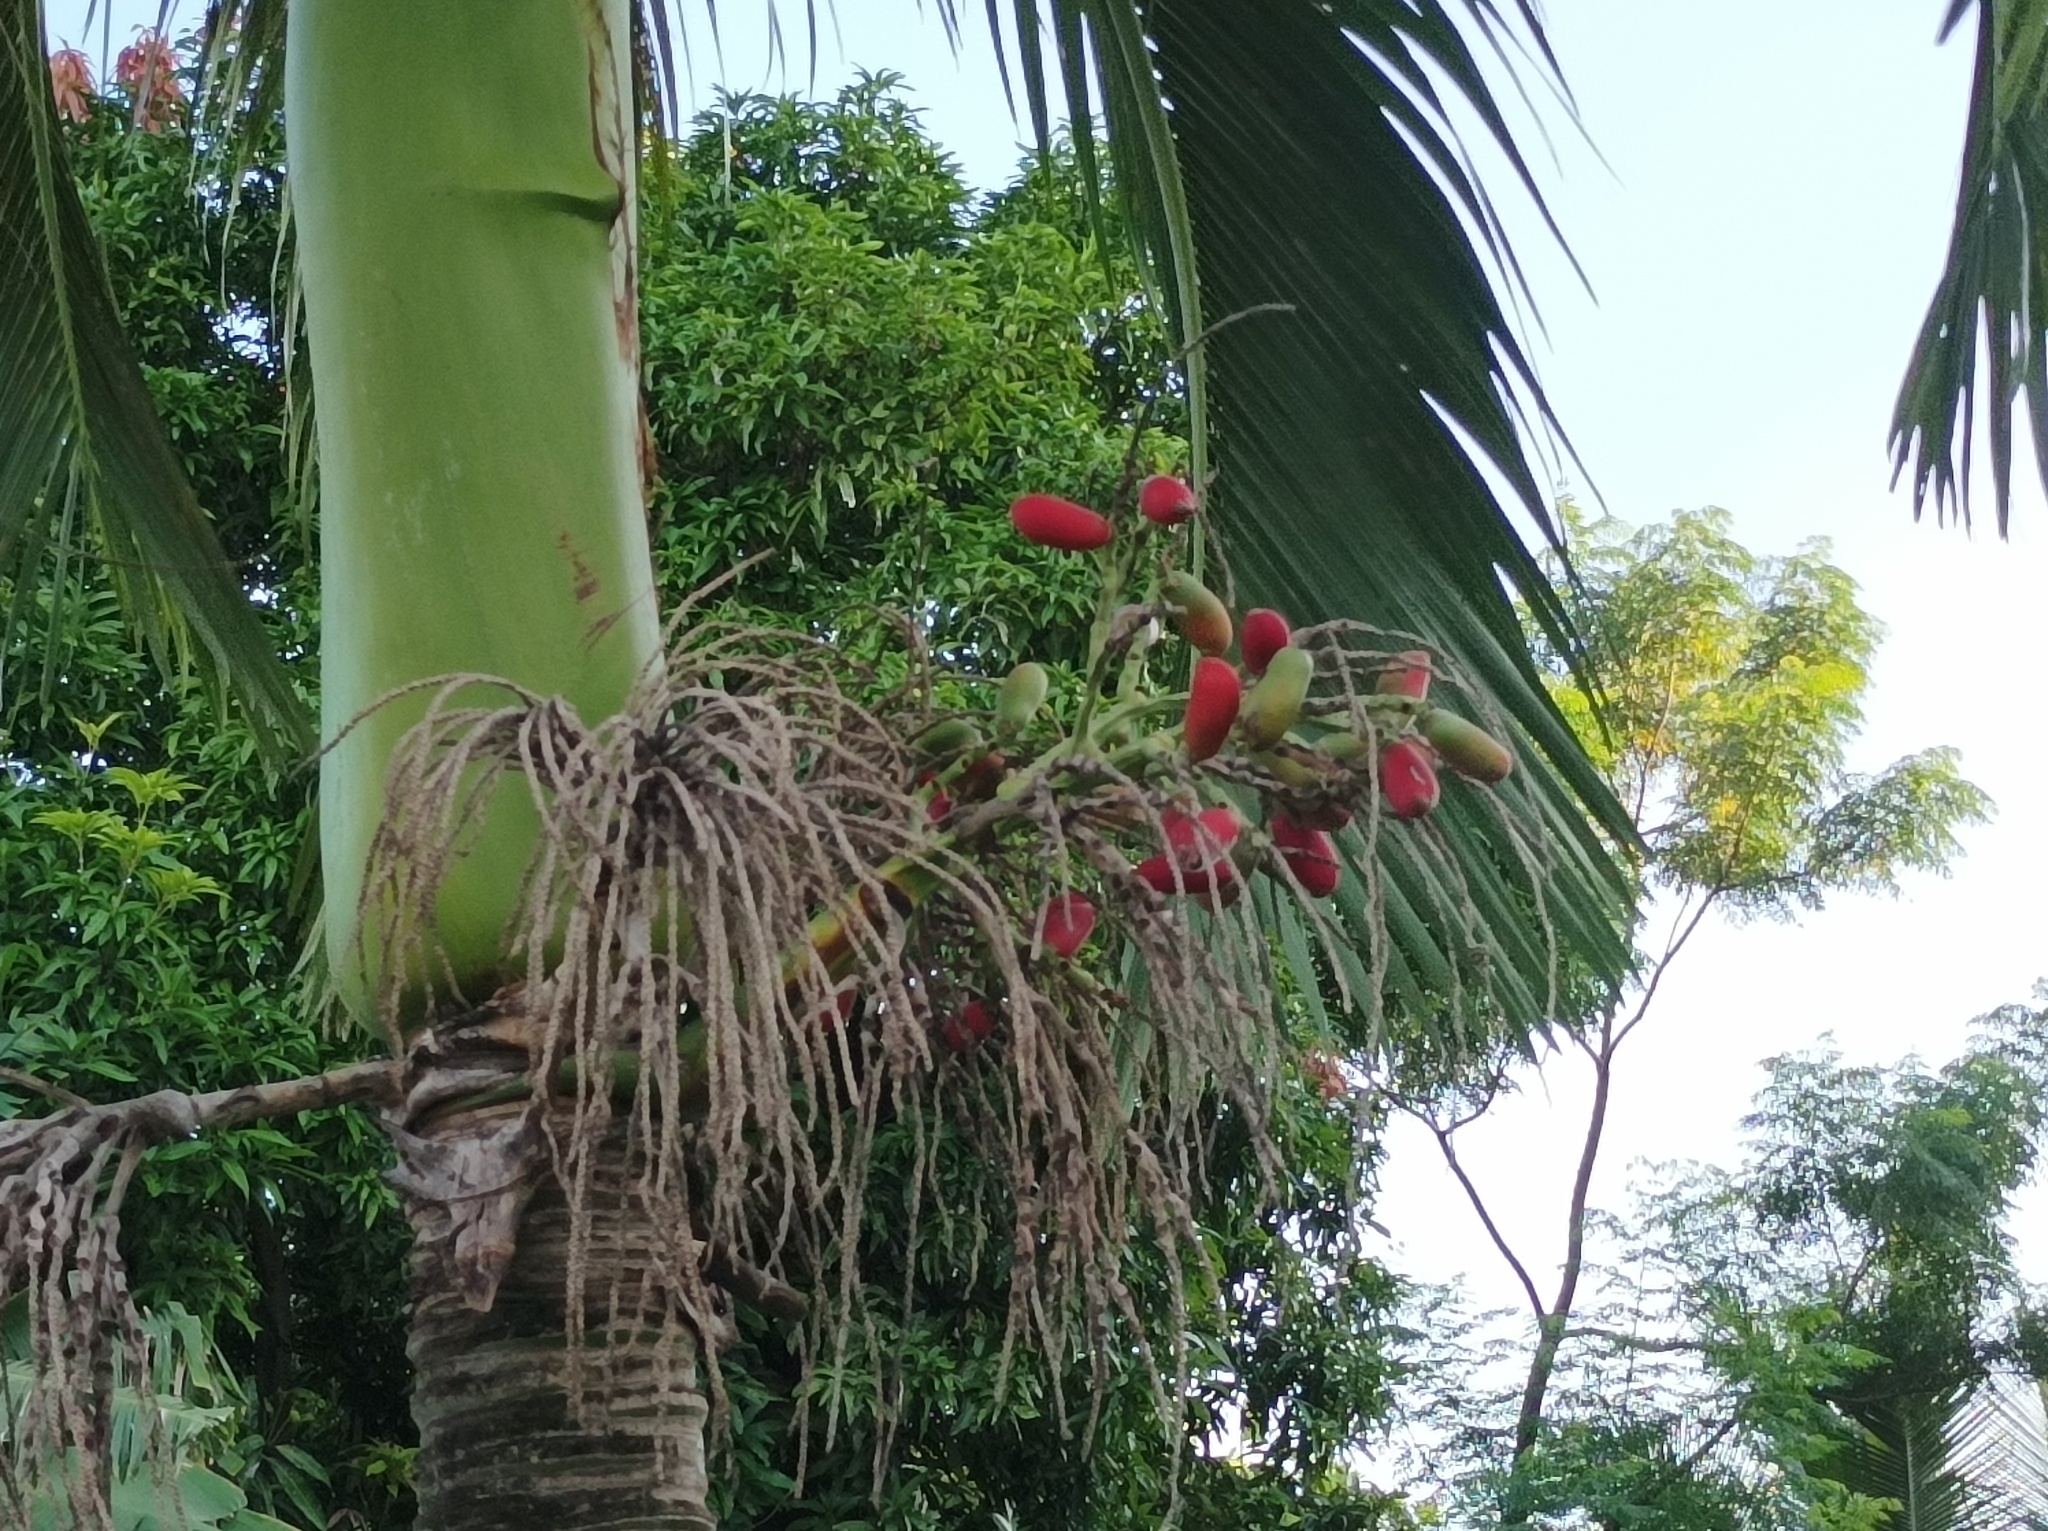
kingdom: Plantae
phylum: Tracheophyta
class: Liliopsida
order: Arecales
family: Arecaceae
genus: Carpoxylon
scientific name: Carpoxylon macrospermum
